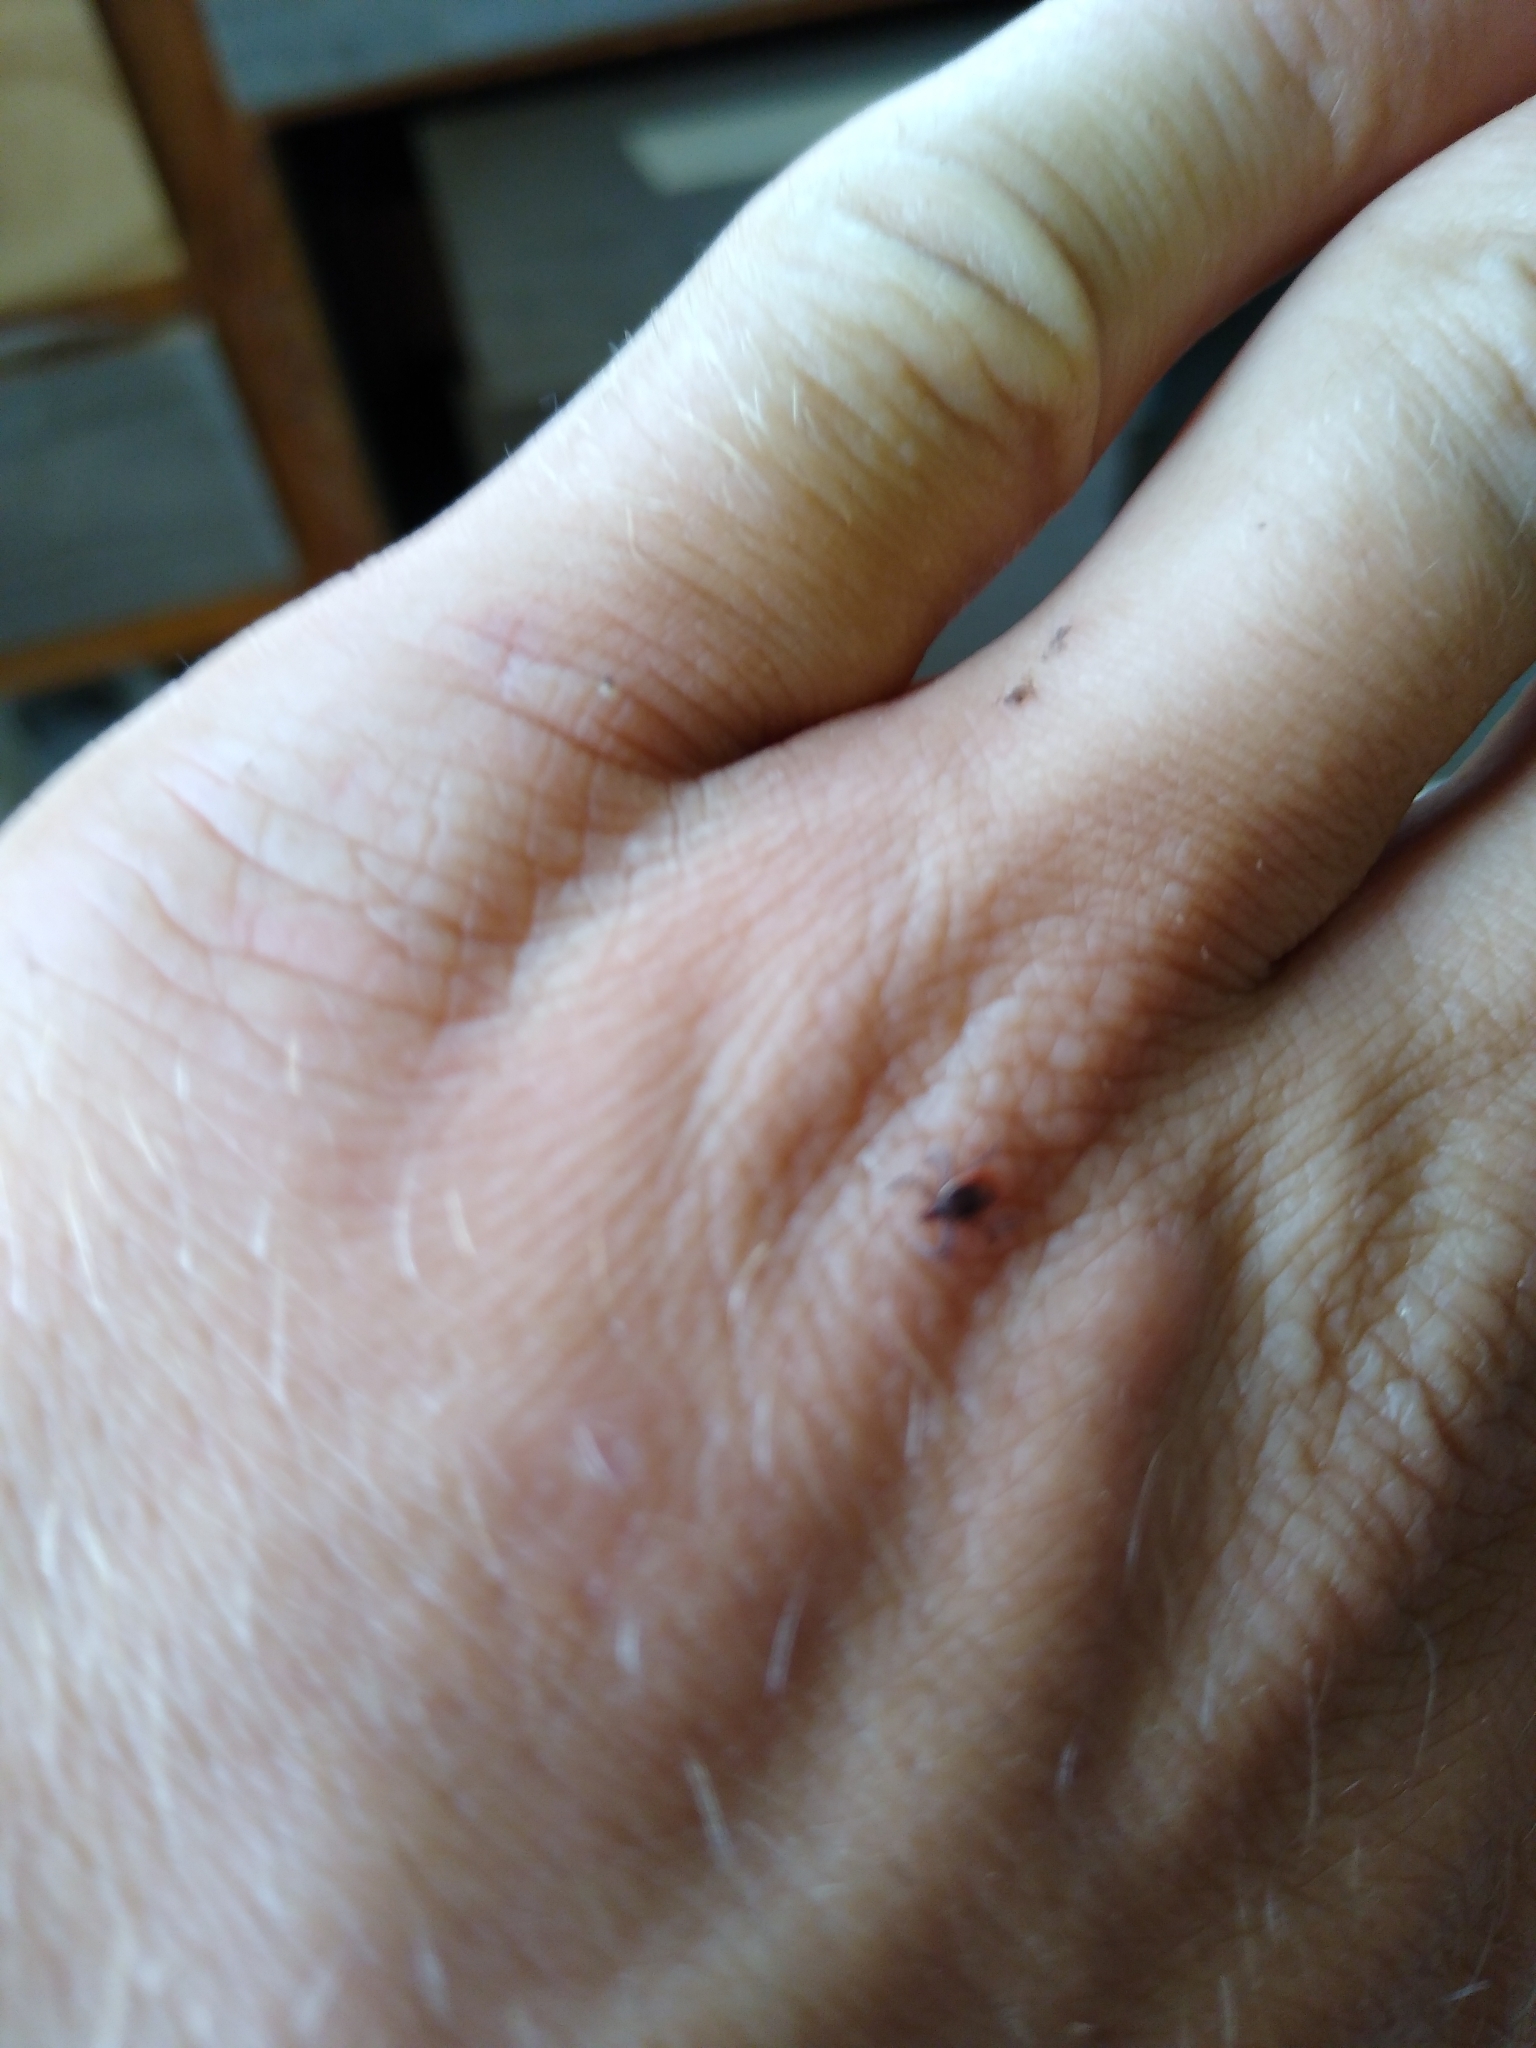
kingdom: Animalia
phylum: Arthropoda
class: Arachnida
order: Ixodida
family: Ixodidae
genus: Ixodes
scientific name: Ixodes scapularis
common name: Black legged tick
